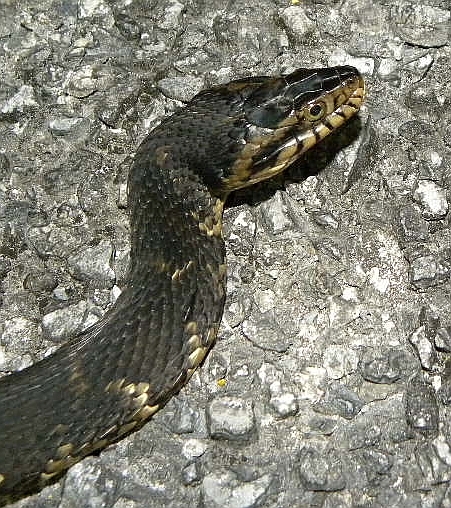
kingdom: Animalia
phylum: Chordata
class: Squamata
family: Colubridae
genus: Nerodia
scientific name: Nerodia fasciata
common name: Southern water snake
